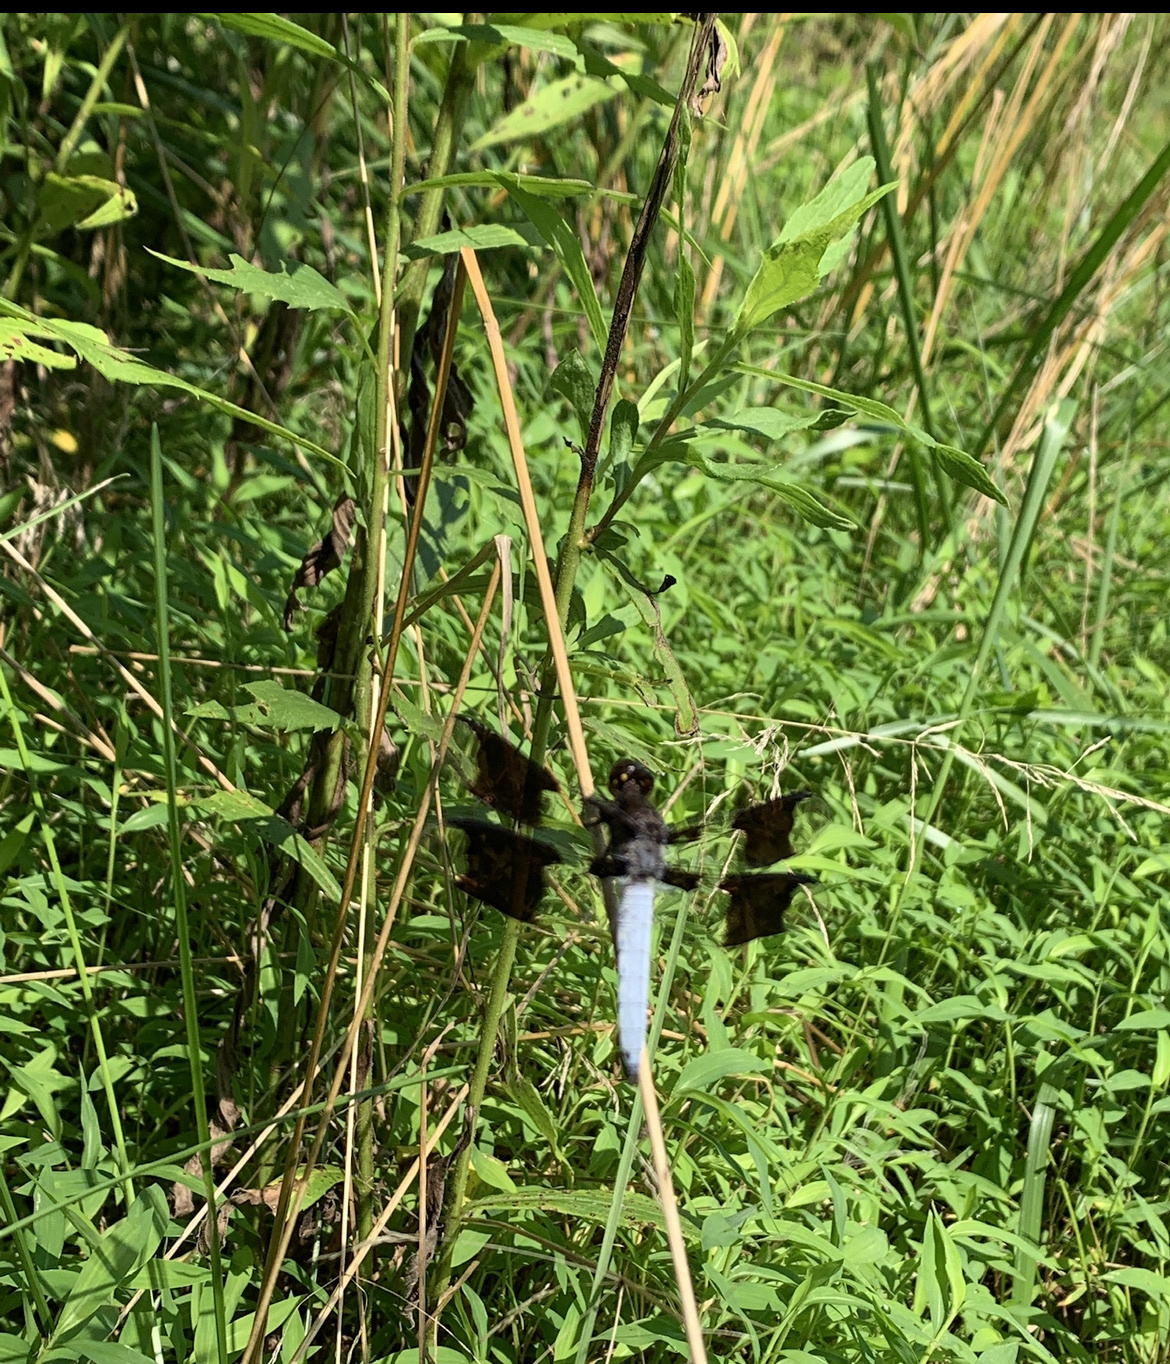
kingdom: Animalia
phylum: Arthropoda
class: Insecta
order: Odonata
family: Libellulidae
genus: Plathemis
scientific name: Plathemis lydia
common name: Common whitetail
